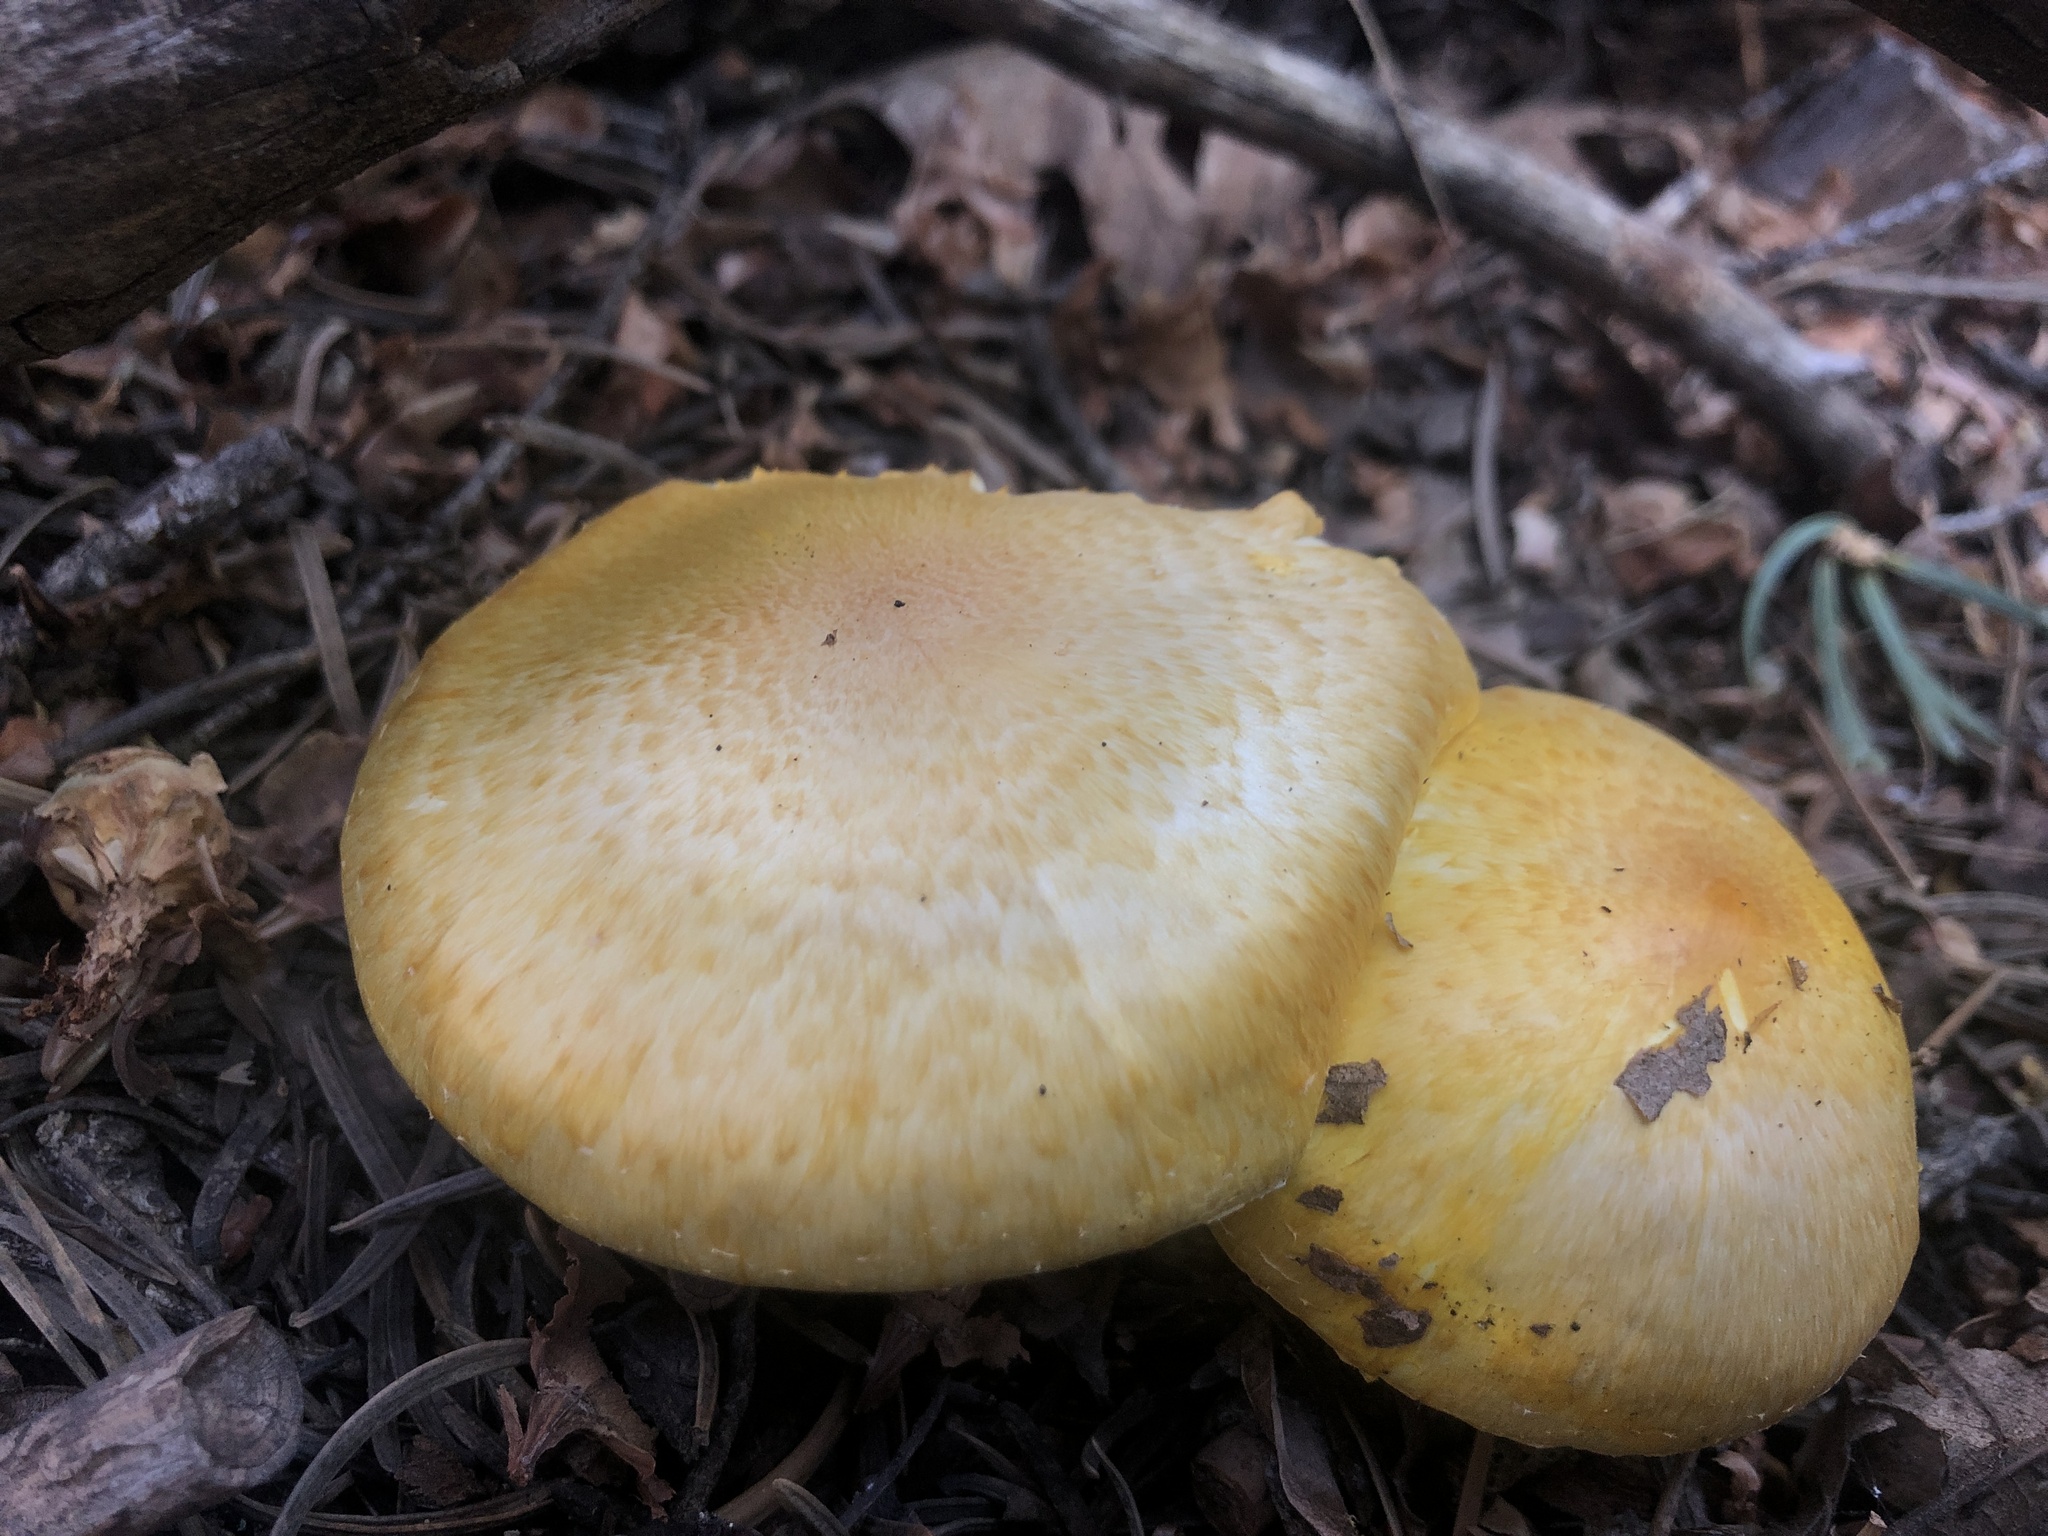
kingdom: Fungi
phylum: Basidiomycota
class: Agaricomycetes
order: Agaricales
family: Agaricaceae
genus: Floccularia
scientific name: Floccularia albolanaripes
